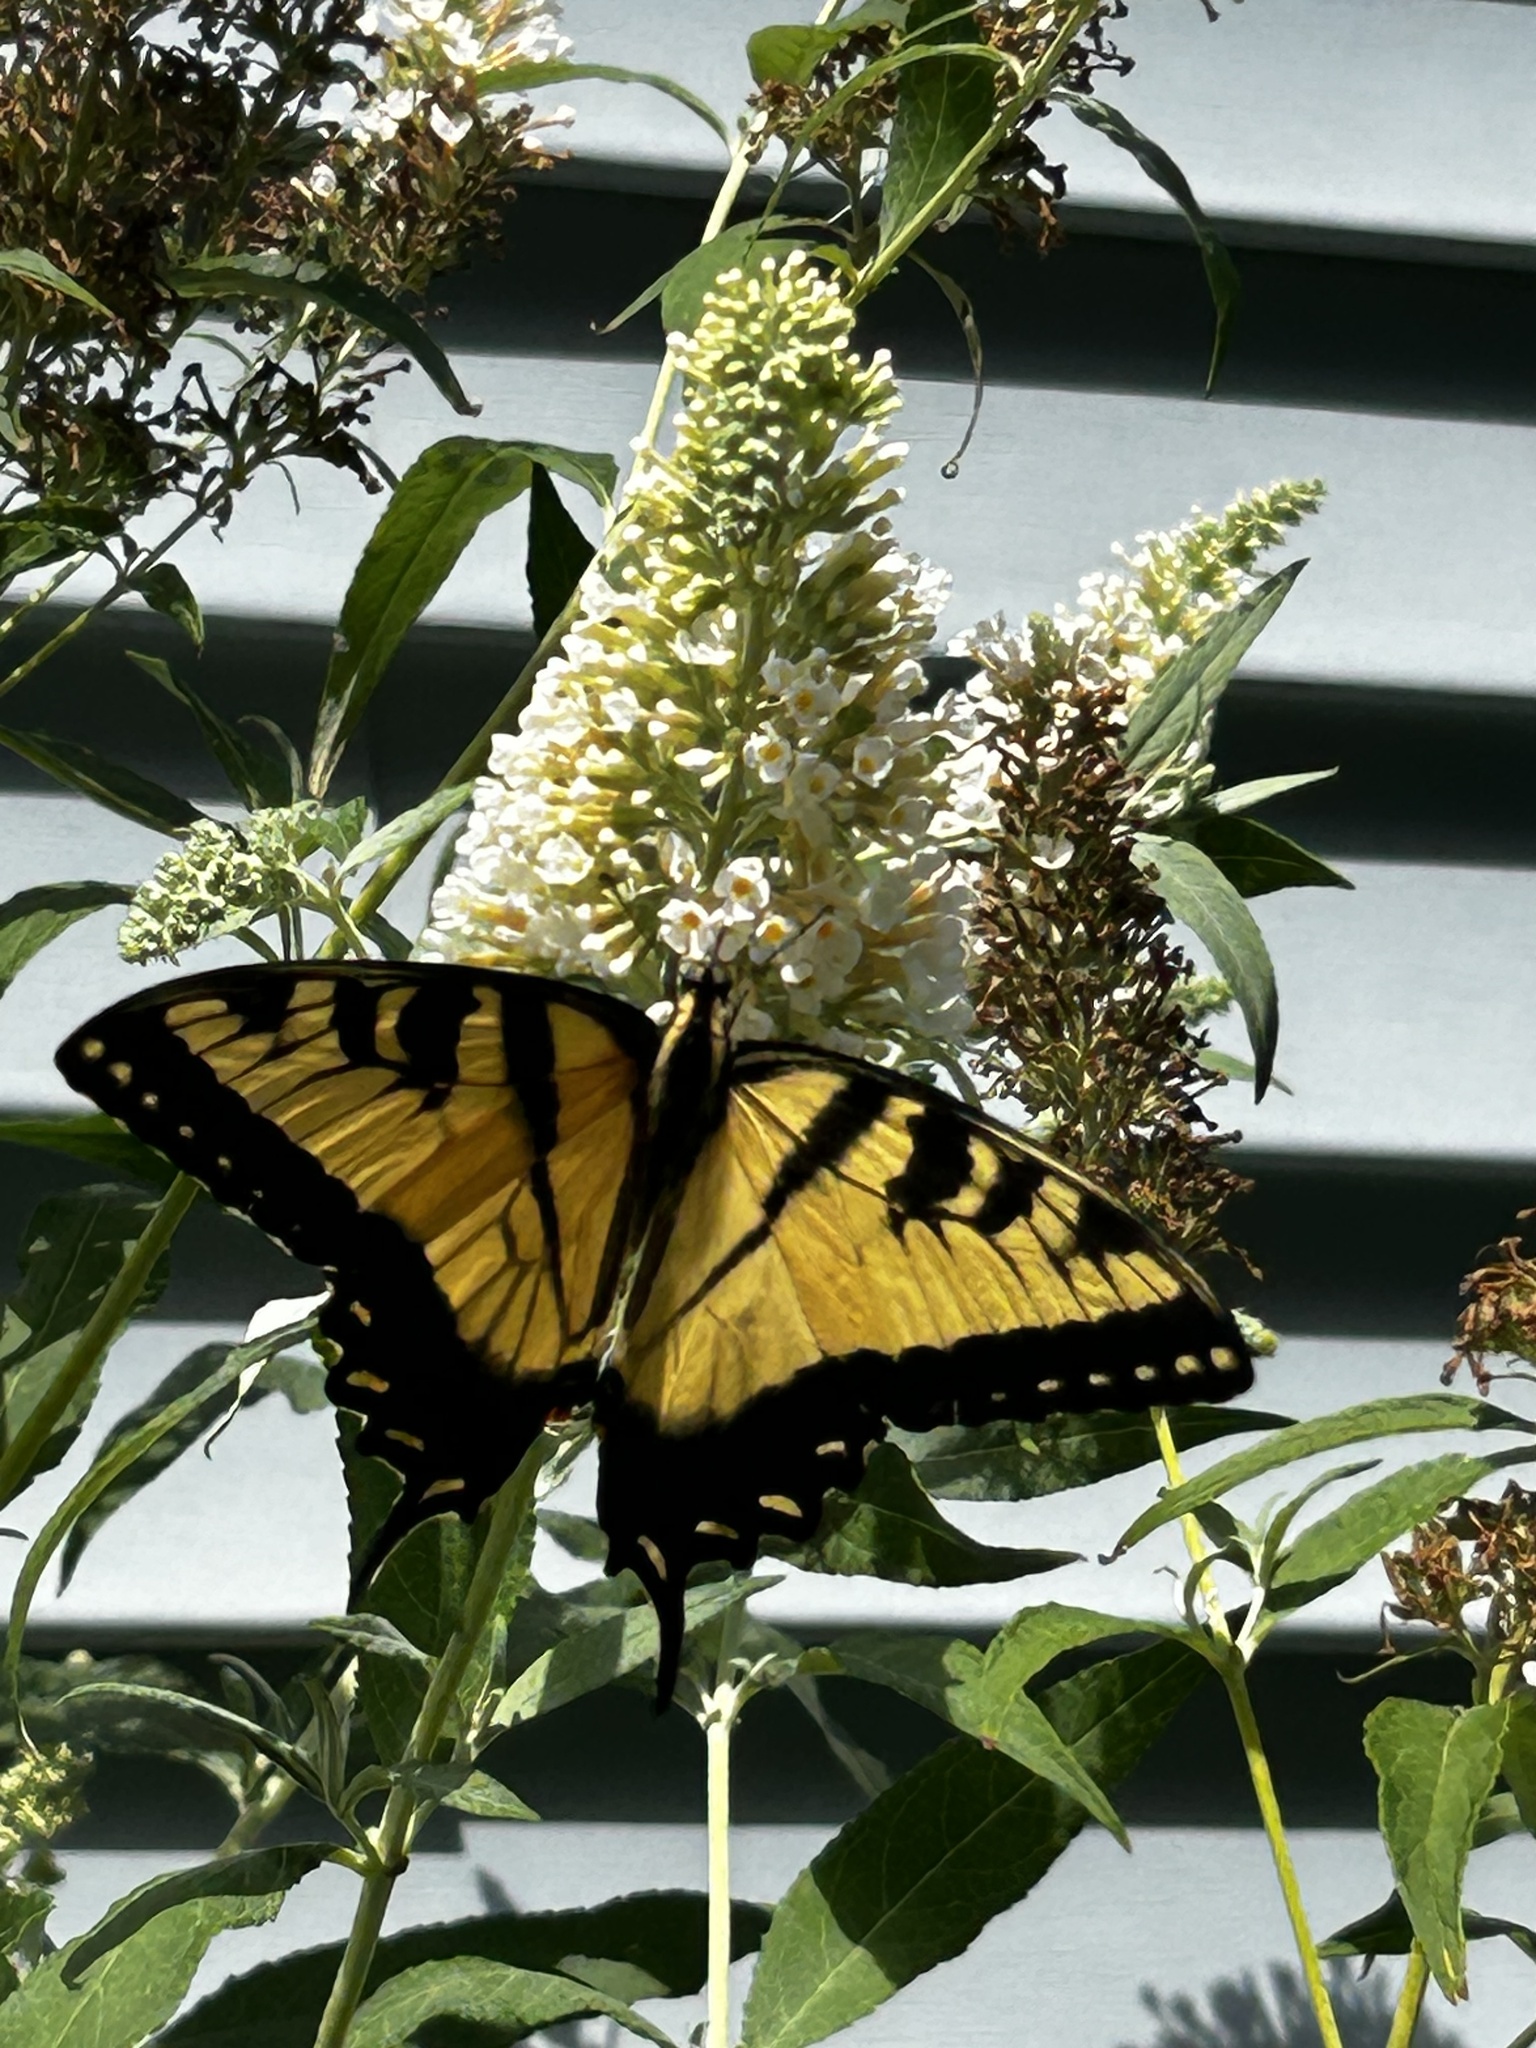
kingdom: Animalia
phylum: Arthropoda
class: Insecta
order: Lepidoptera
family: Papilionidae
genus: Papilio
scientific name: Papilio glaucus
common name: Tiger swallowtail
